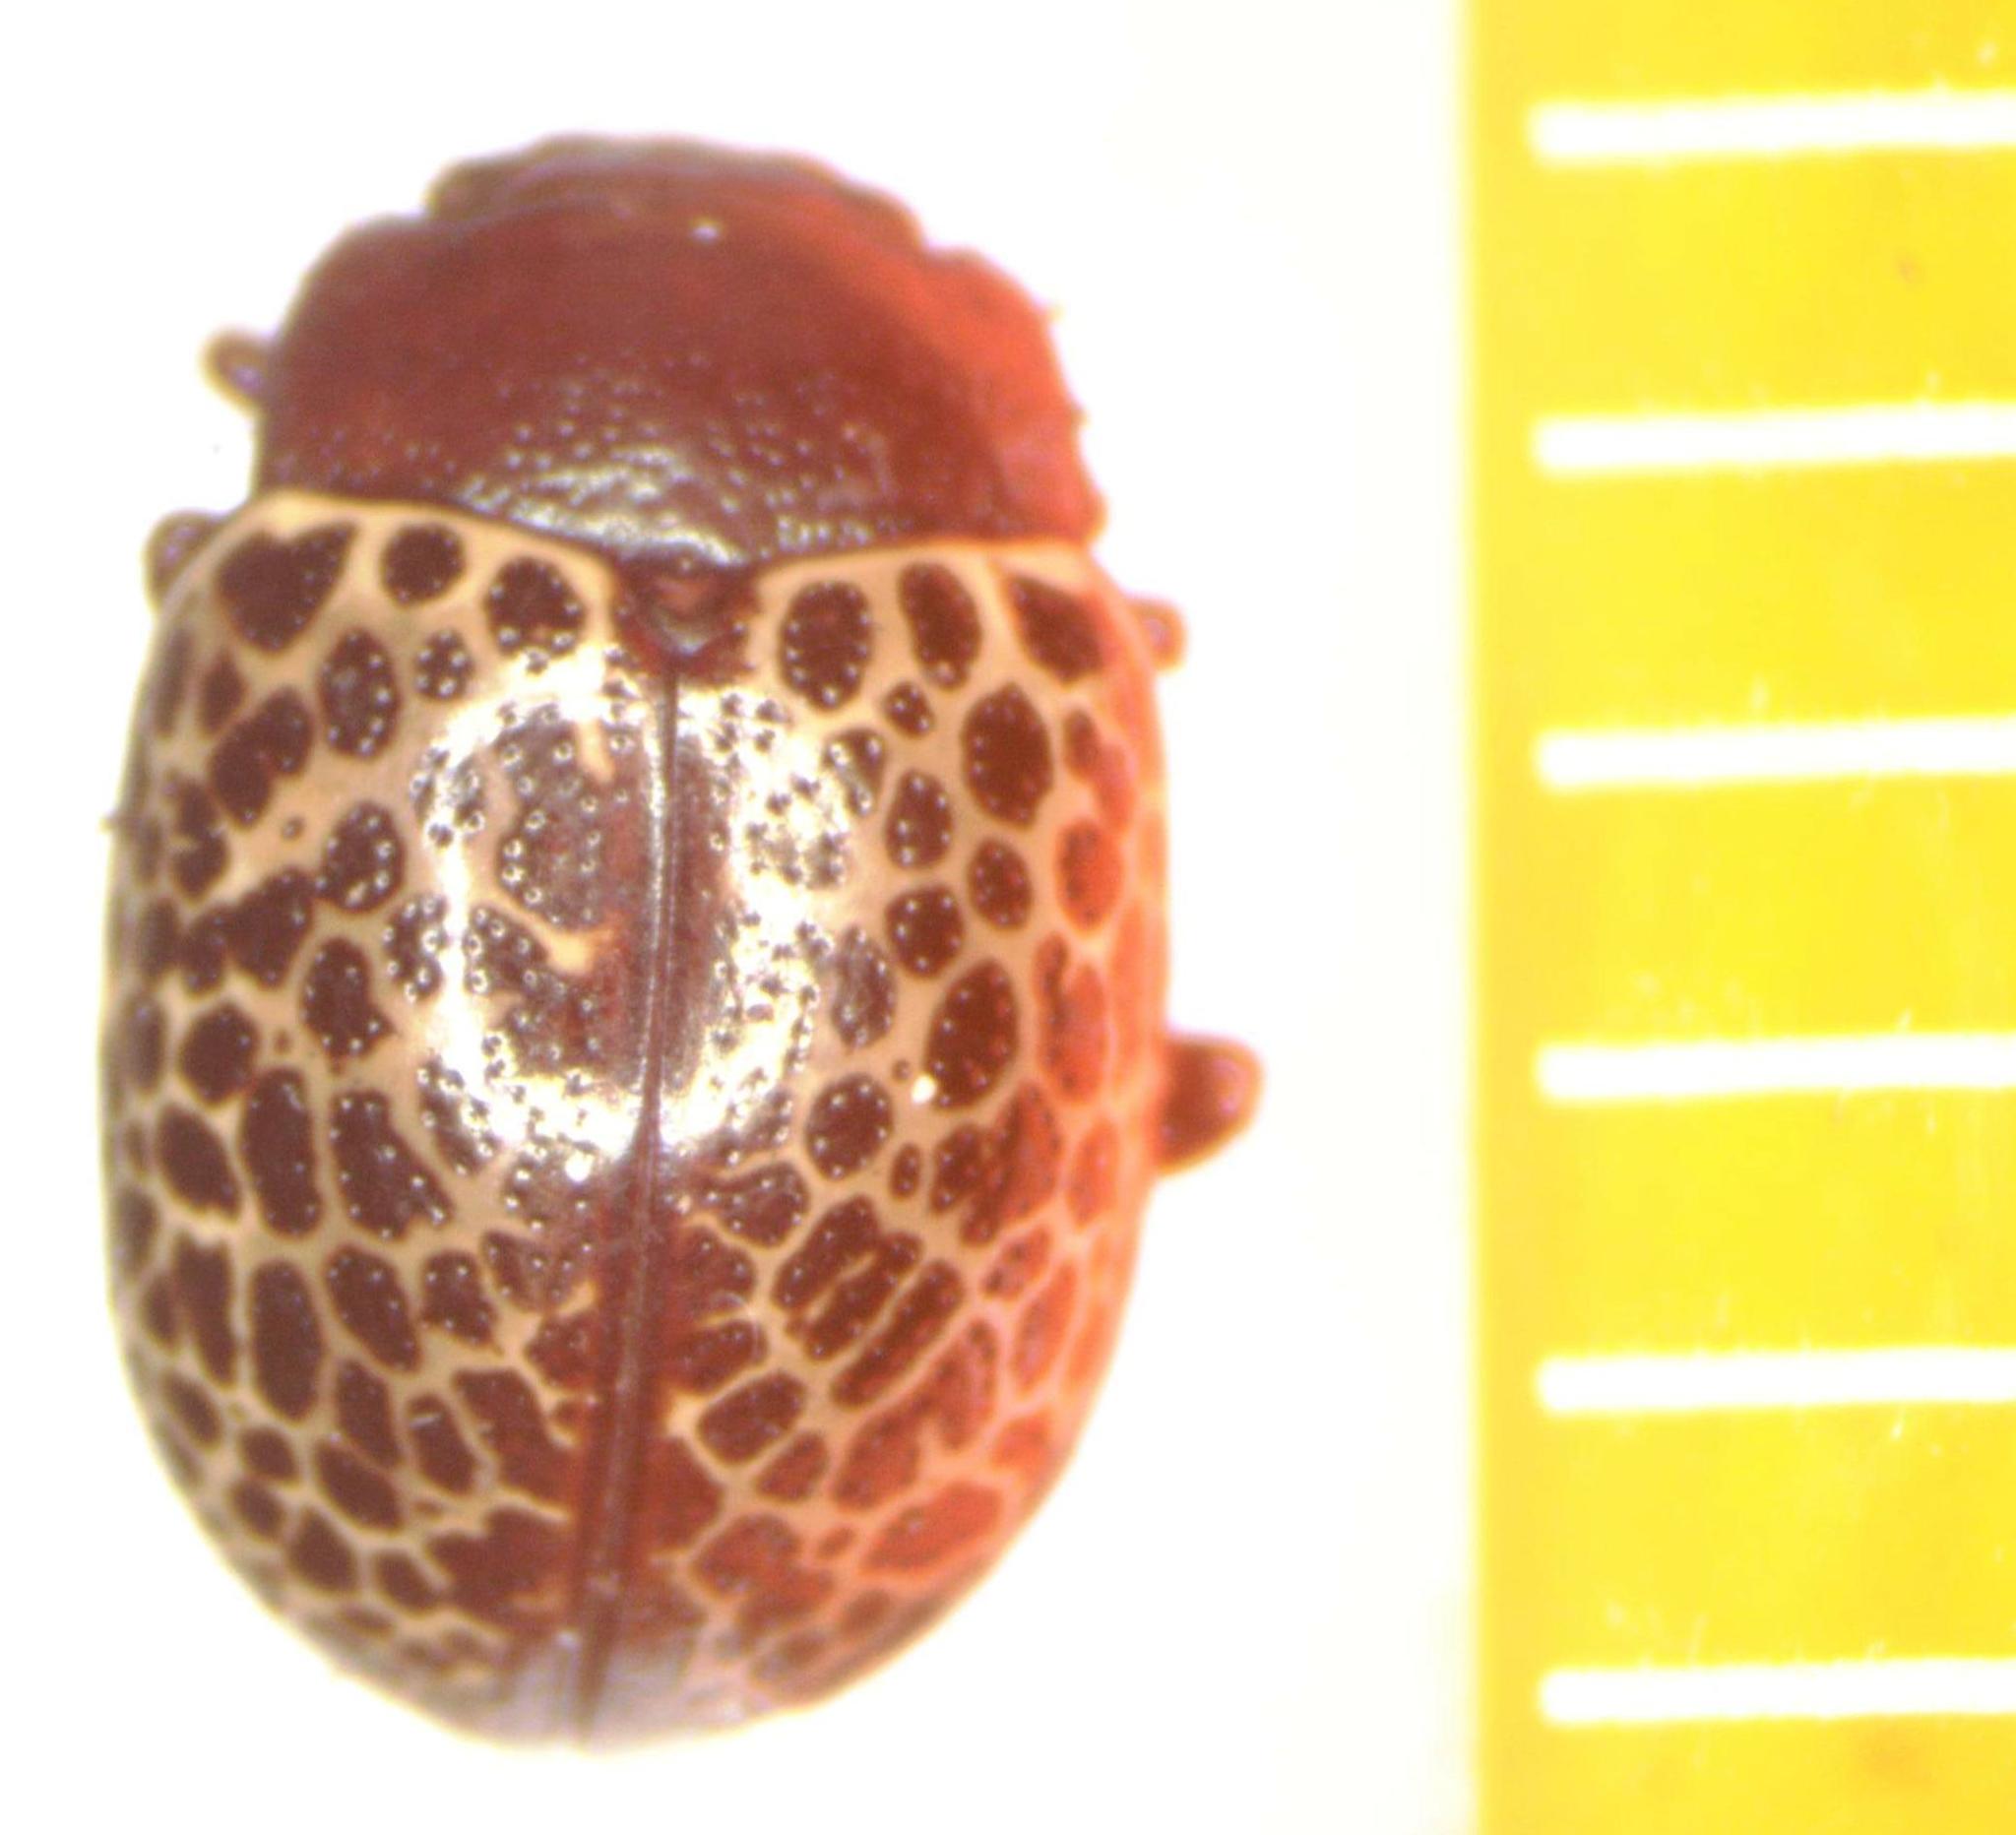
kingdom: Animalia
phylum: Arthropoda
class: Insecta
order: Coleoptera
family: Chrysomelidae
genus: Calligrapha
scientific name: Calligrapha
